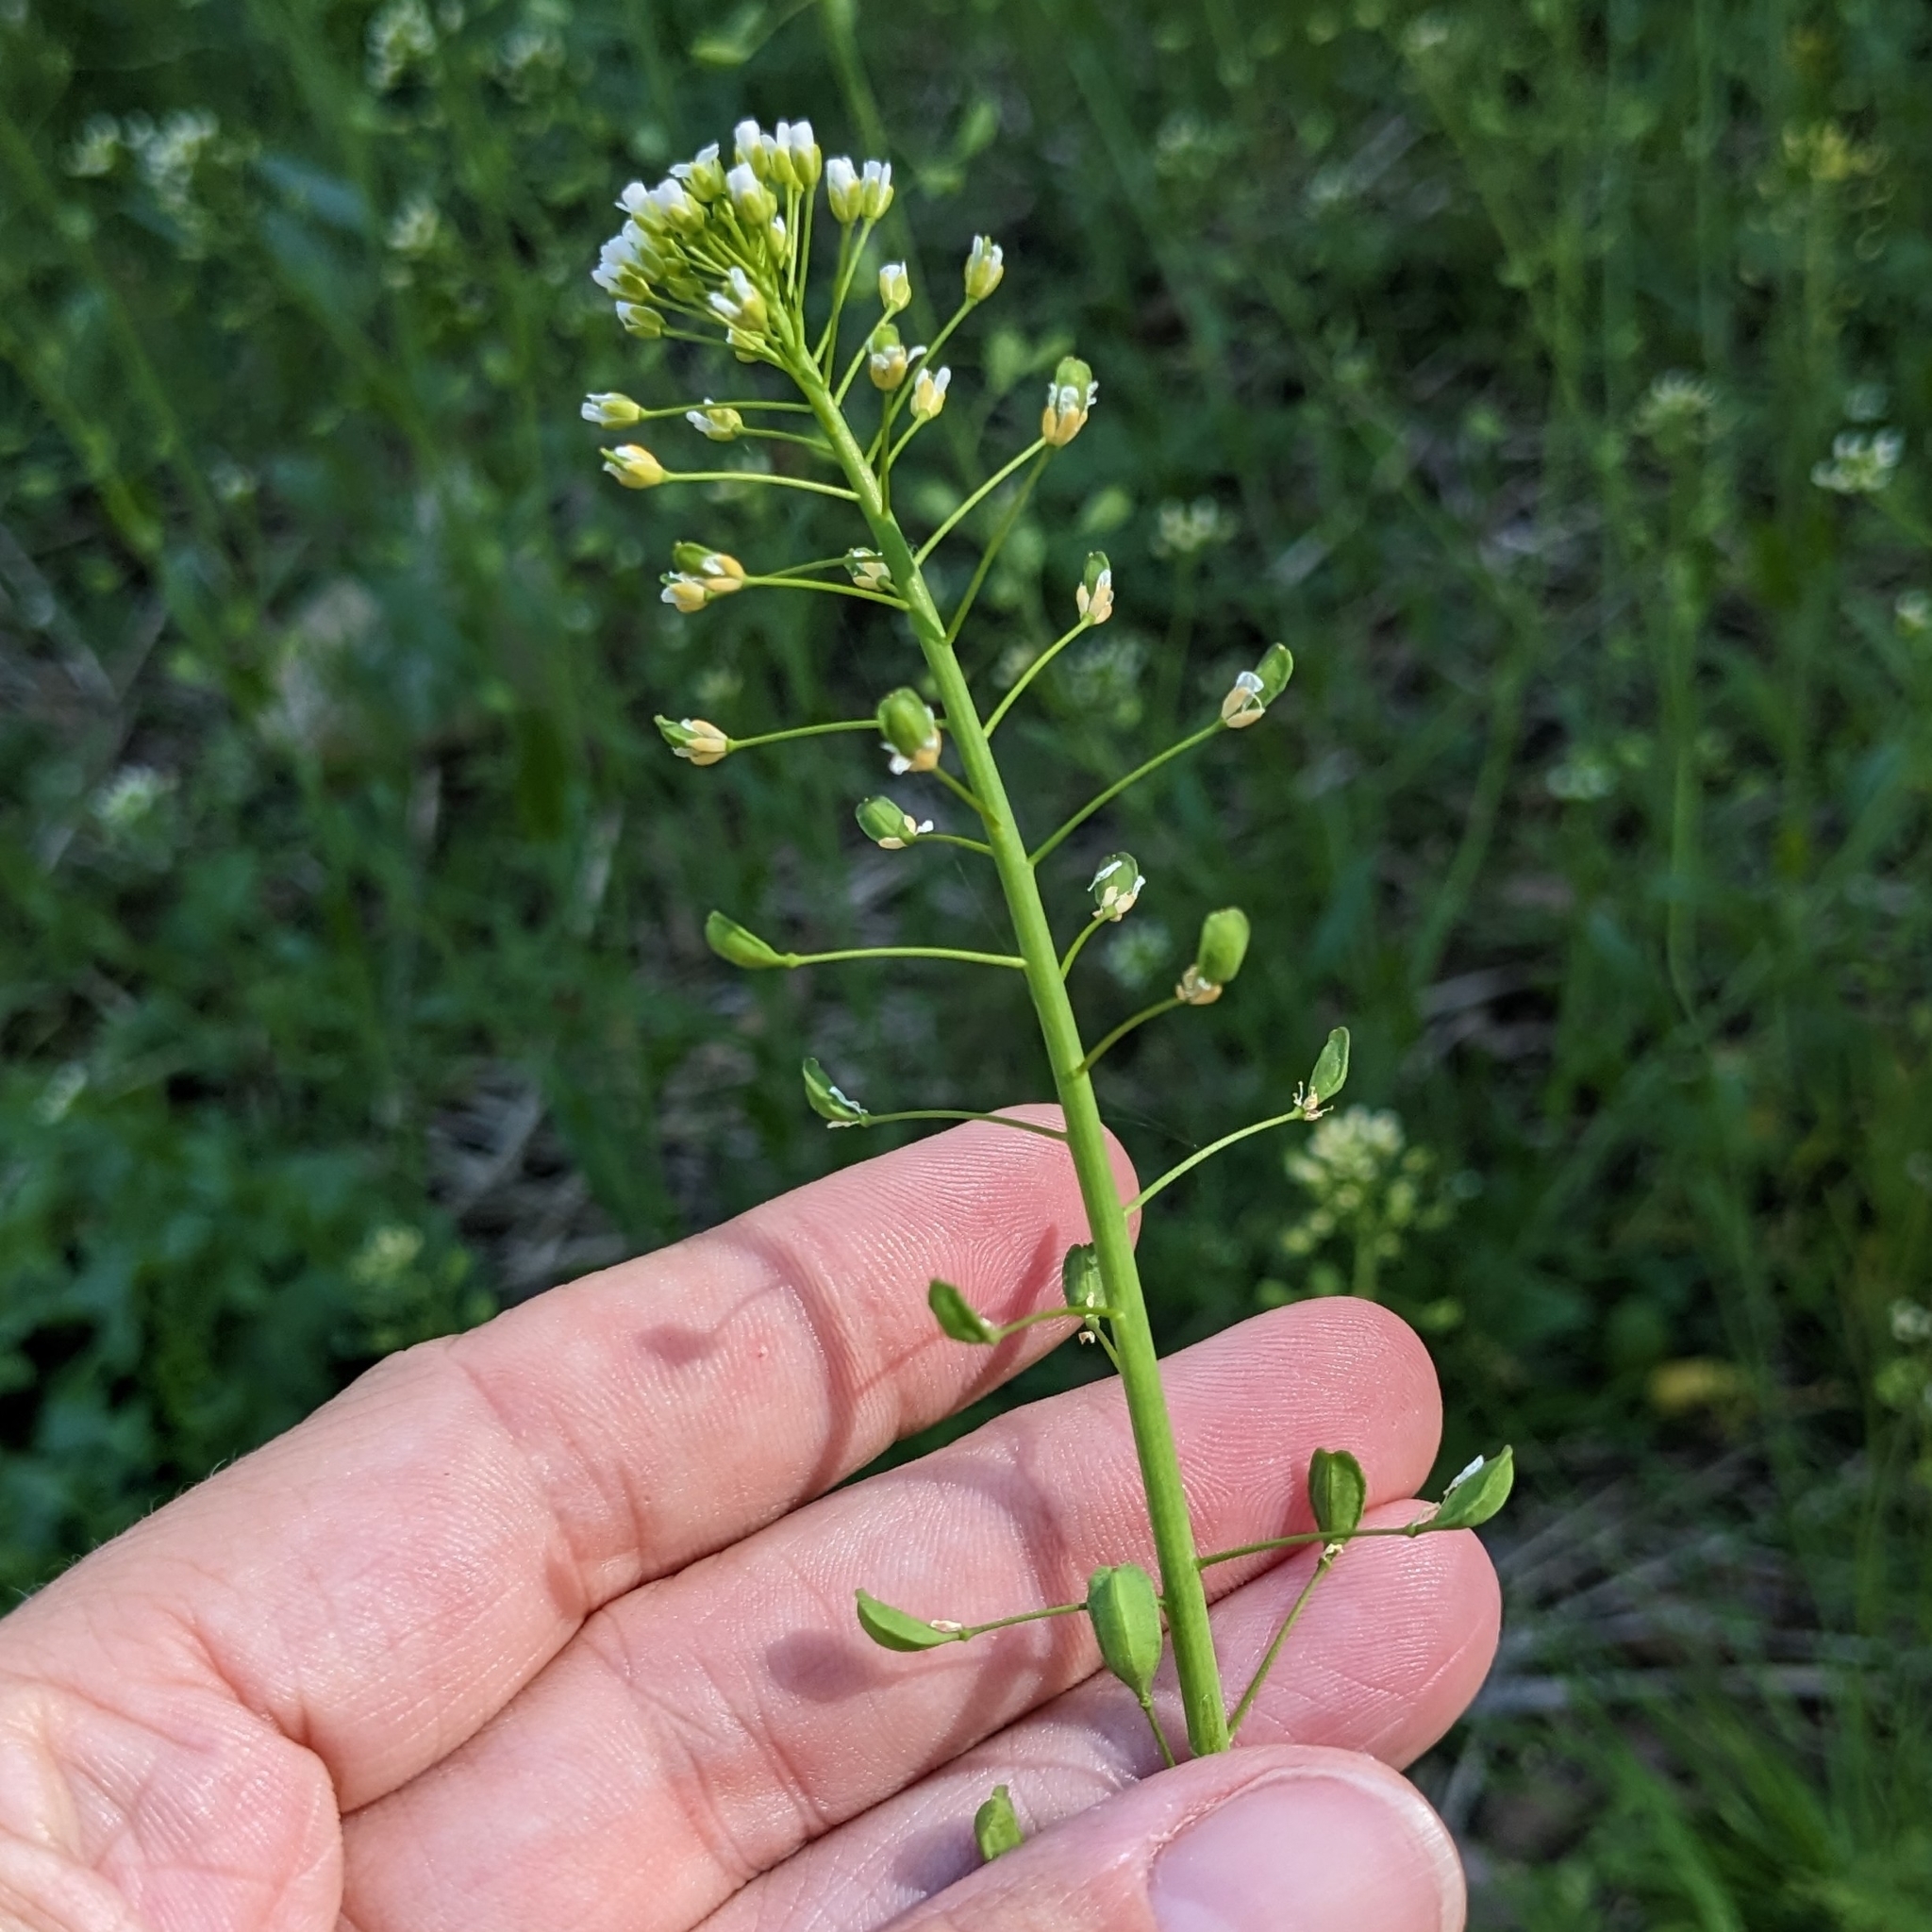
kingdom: Plantae
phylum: Tracheophyta
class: Magnoliopsida
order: Brassicales
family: Brassicaceae
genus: Mummenhoffia
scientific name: Mummenhoffia alliacea
